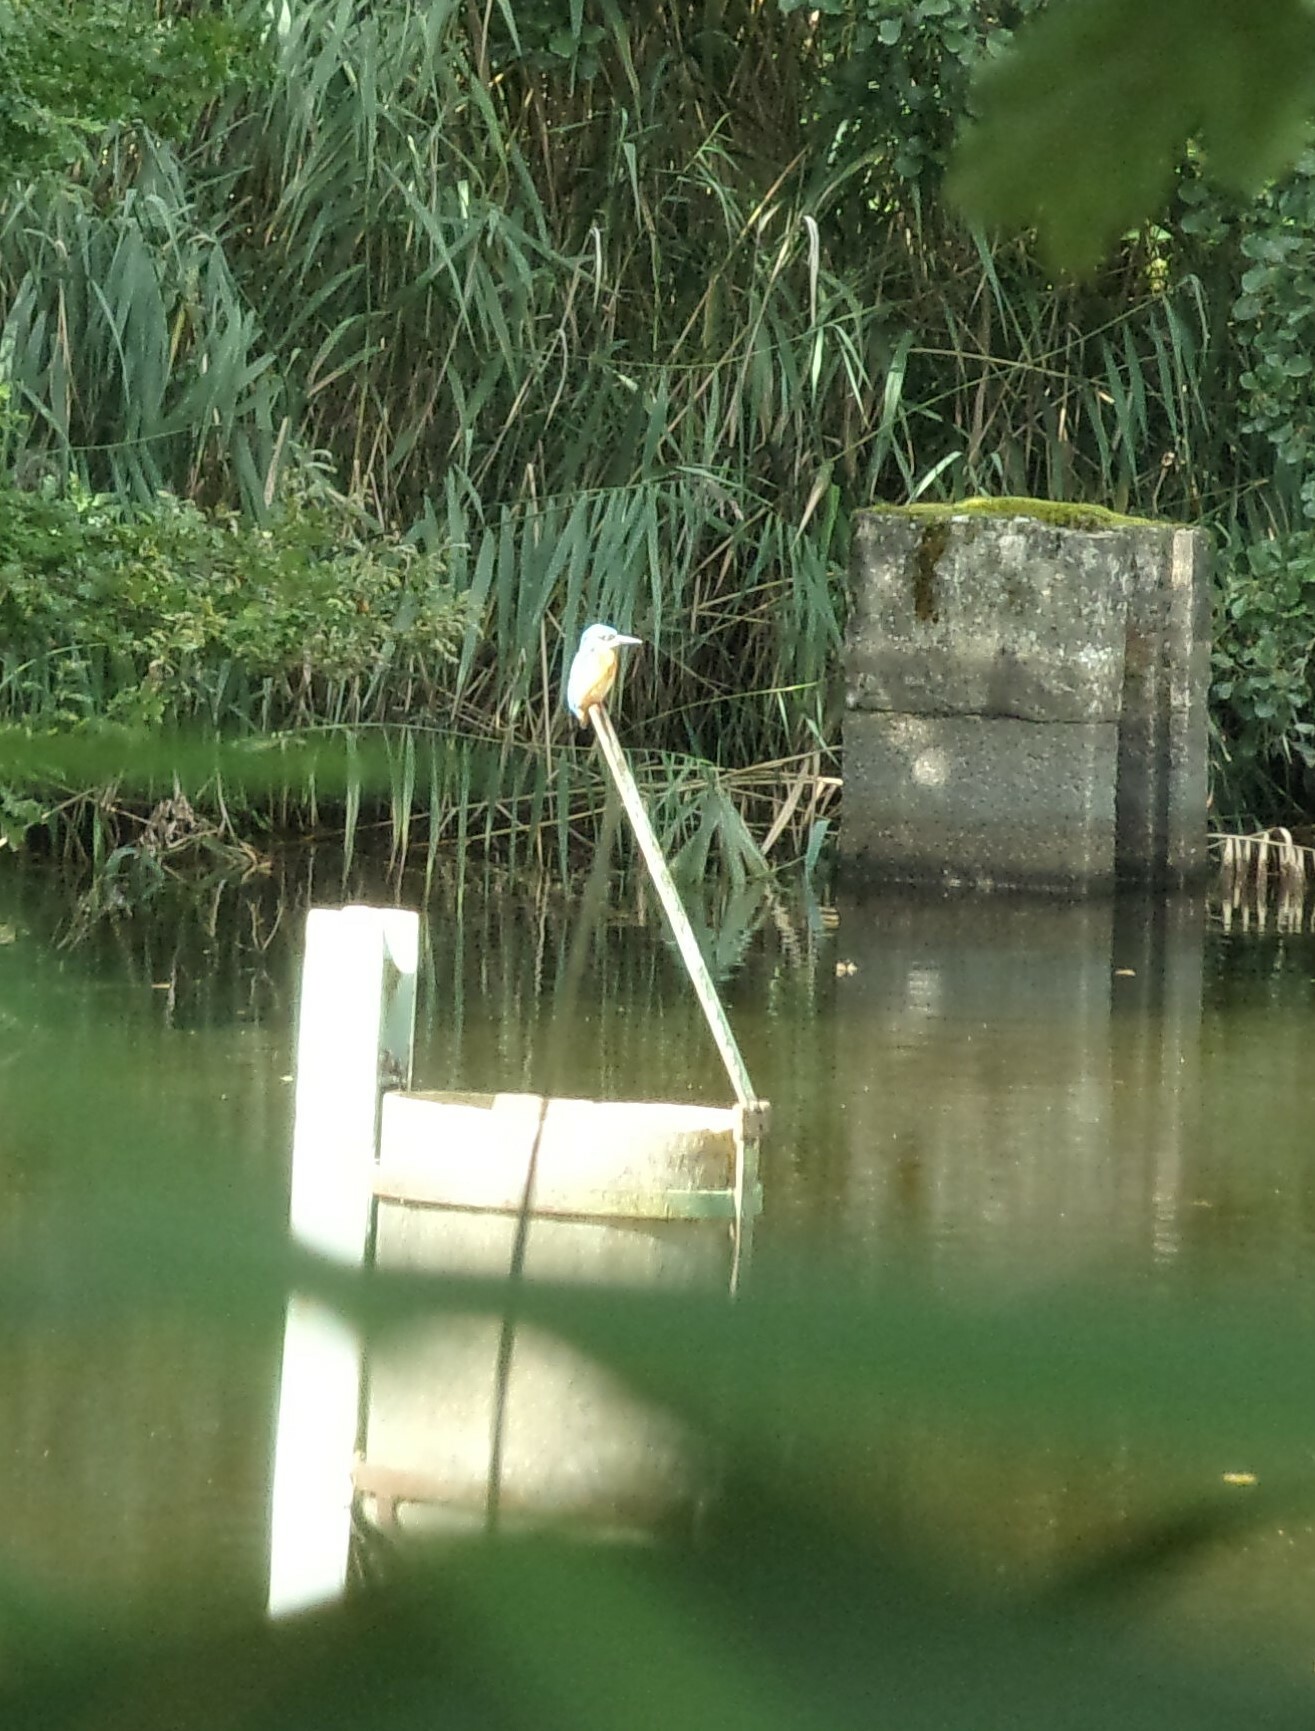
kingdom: Animalia
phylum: Chordata
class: Aves
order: Coraciiformes
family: Alcedinidae
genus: Alcedo
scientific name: Alcedo atthis
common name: Common kingfisher
